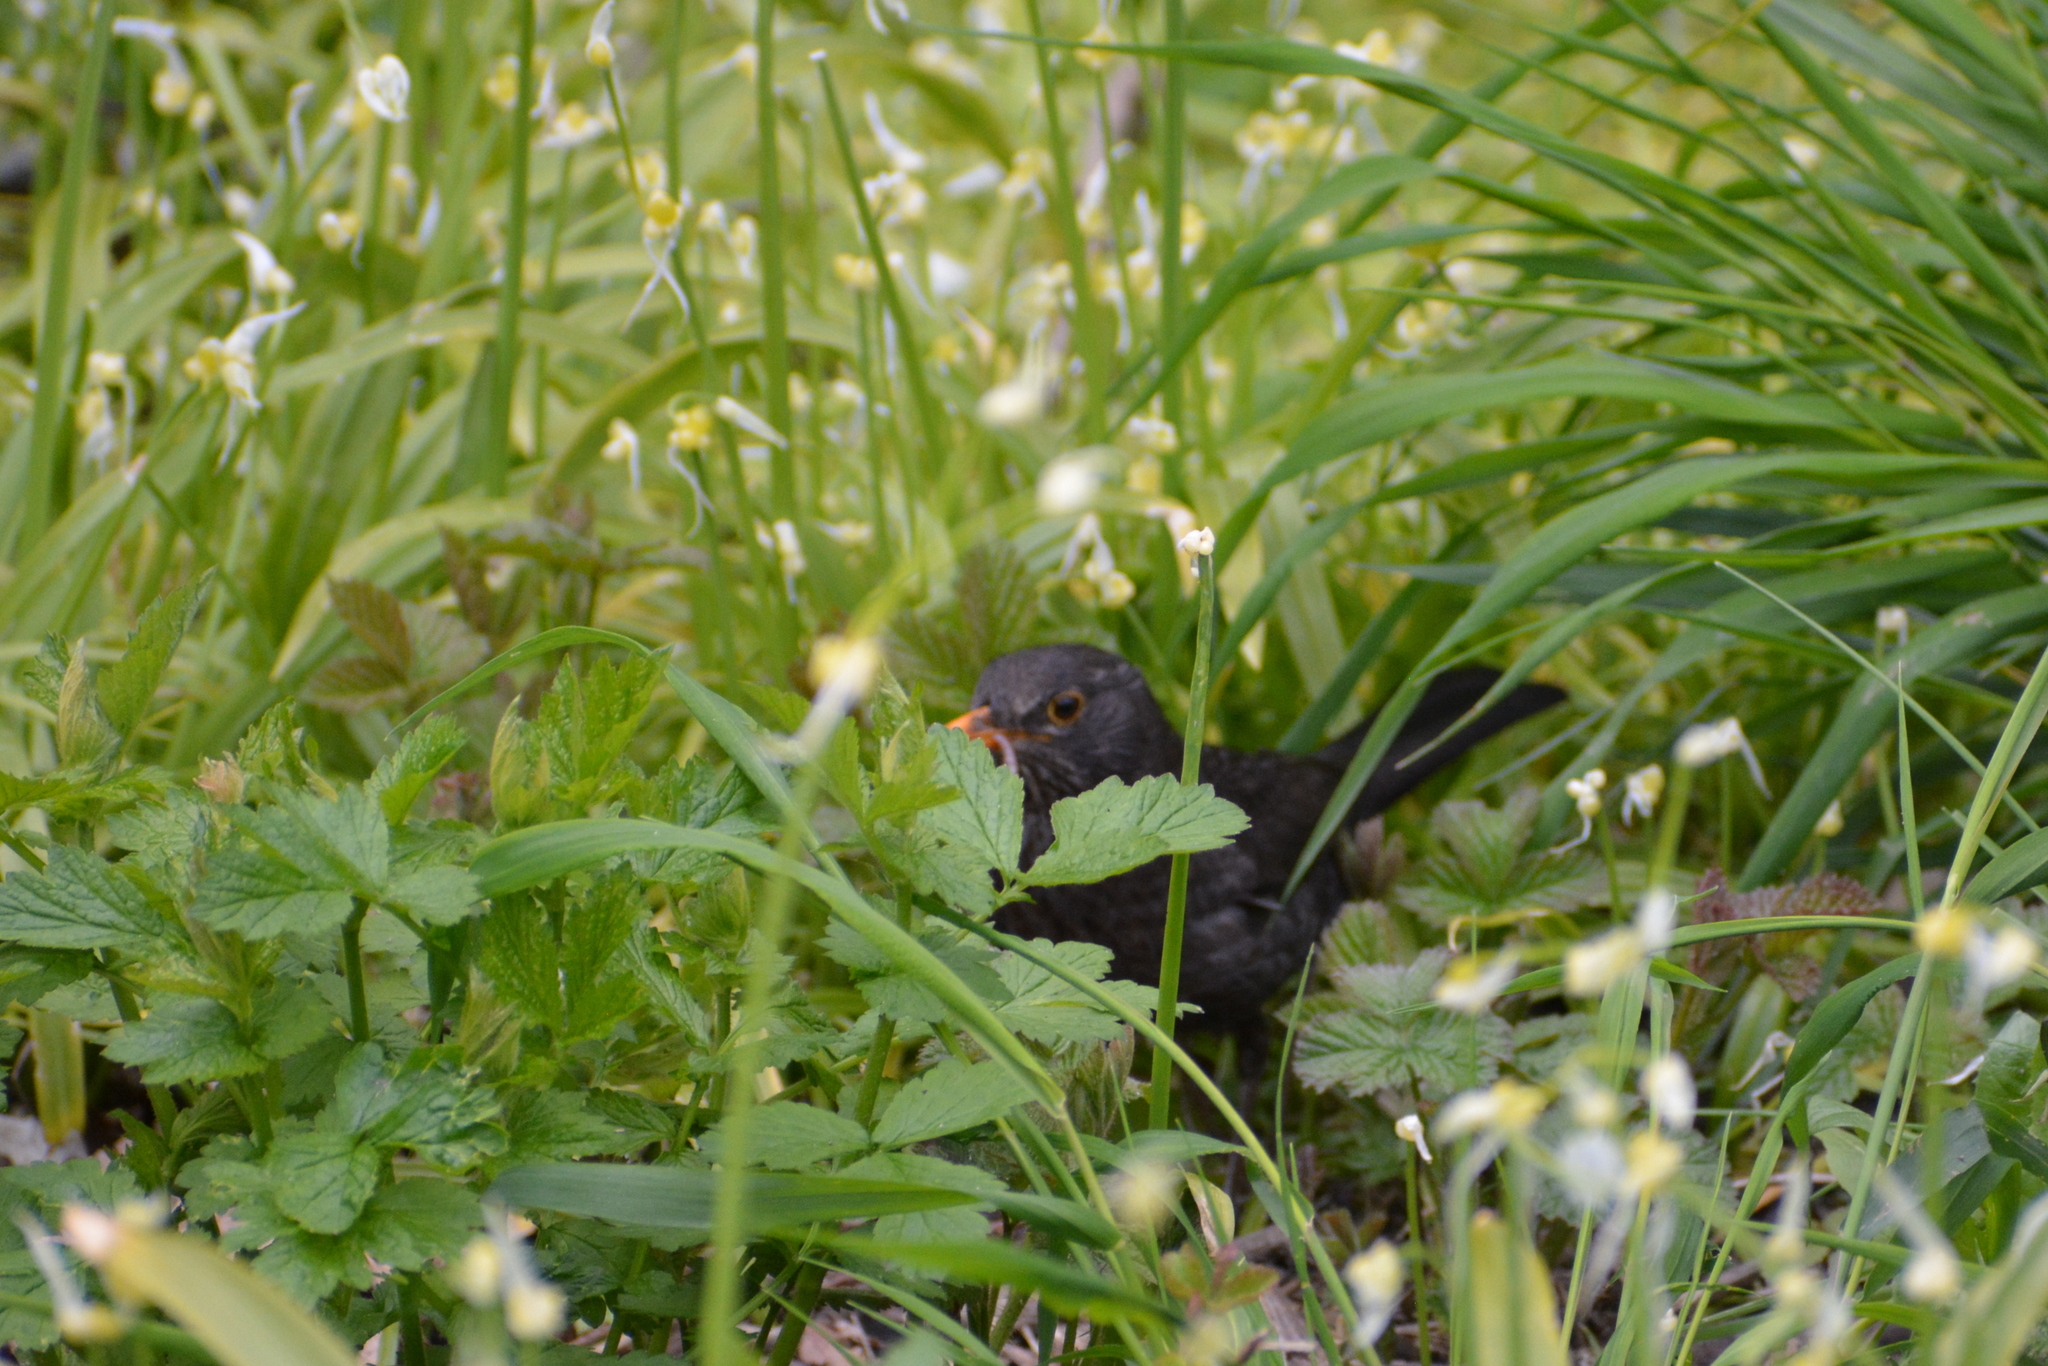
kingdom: Animalia
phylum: Chordata
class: Aves
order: Passeriformes
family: Turdidae
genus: Turdus
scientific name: Turdus merula
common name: Common blackbird
